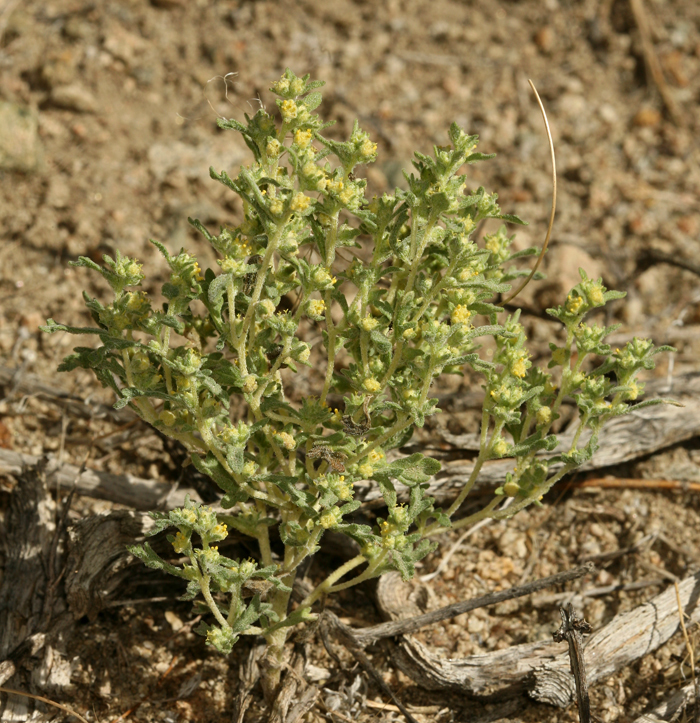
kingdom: Plantae
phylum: Tracheophyta
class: Magnoliopsida
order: Asterales
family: Asteraceae
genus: Euphrosyne
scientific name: Euphrosyne nevadensis
